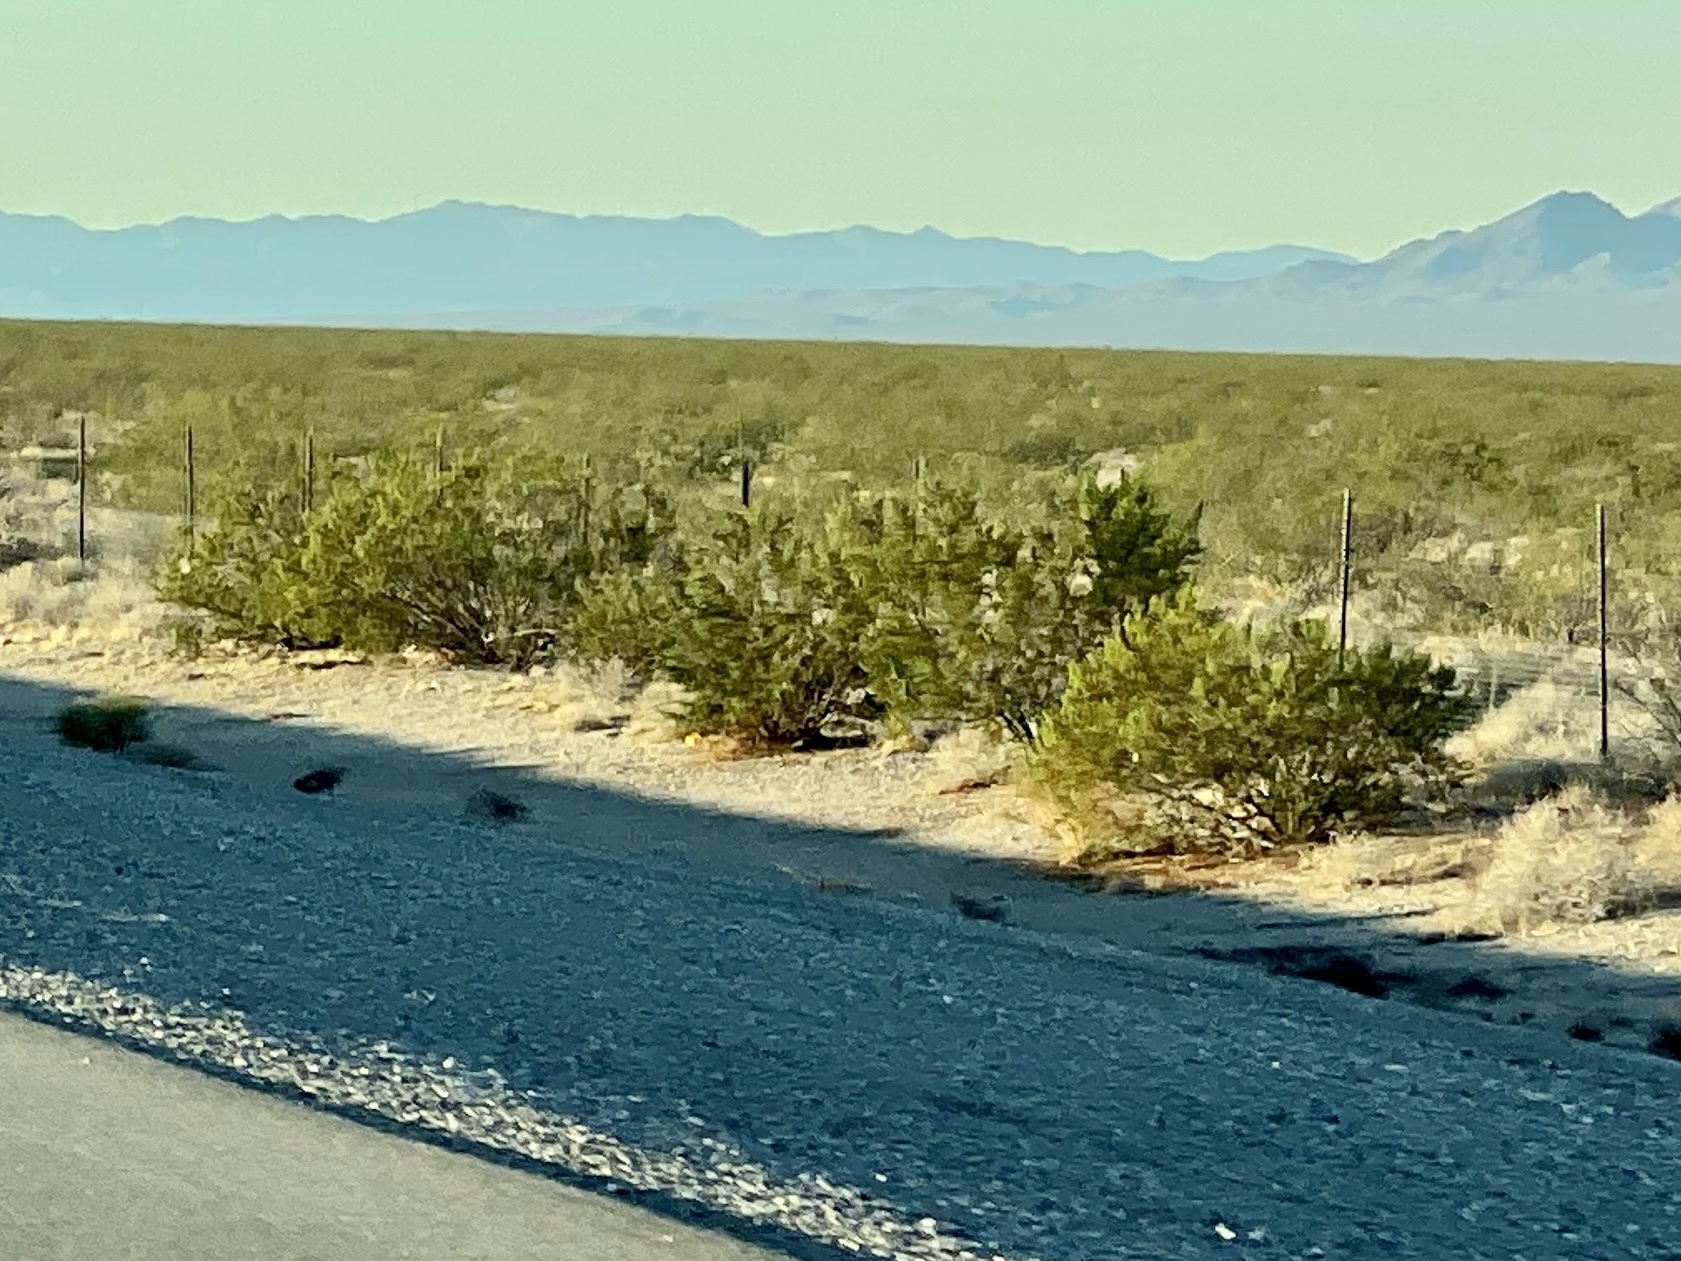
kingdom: Plantae
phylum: Tracheophyta
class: Magnoliopsida
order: Zygophyllales
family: Zygophyllaceae
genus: Larrea
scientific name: Larrea tridentata
